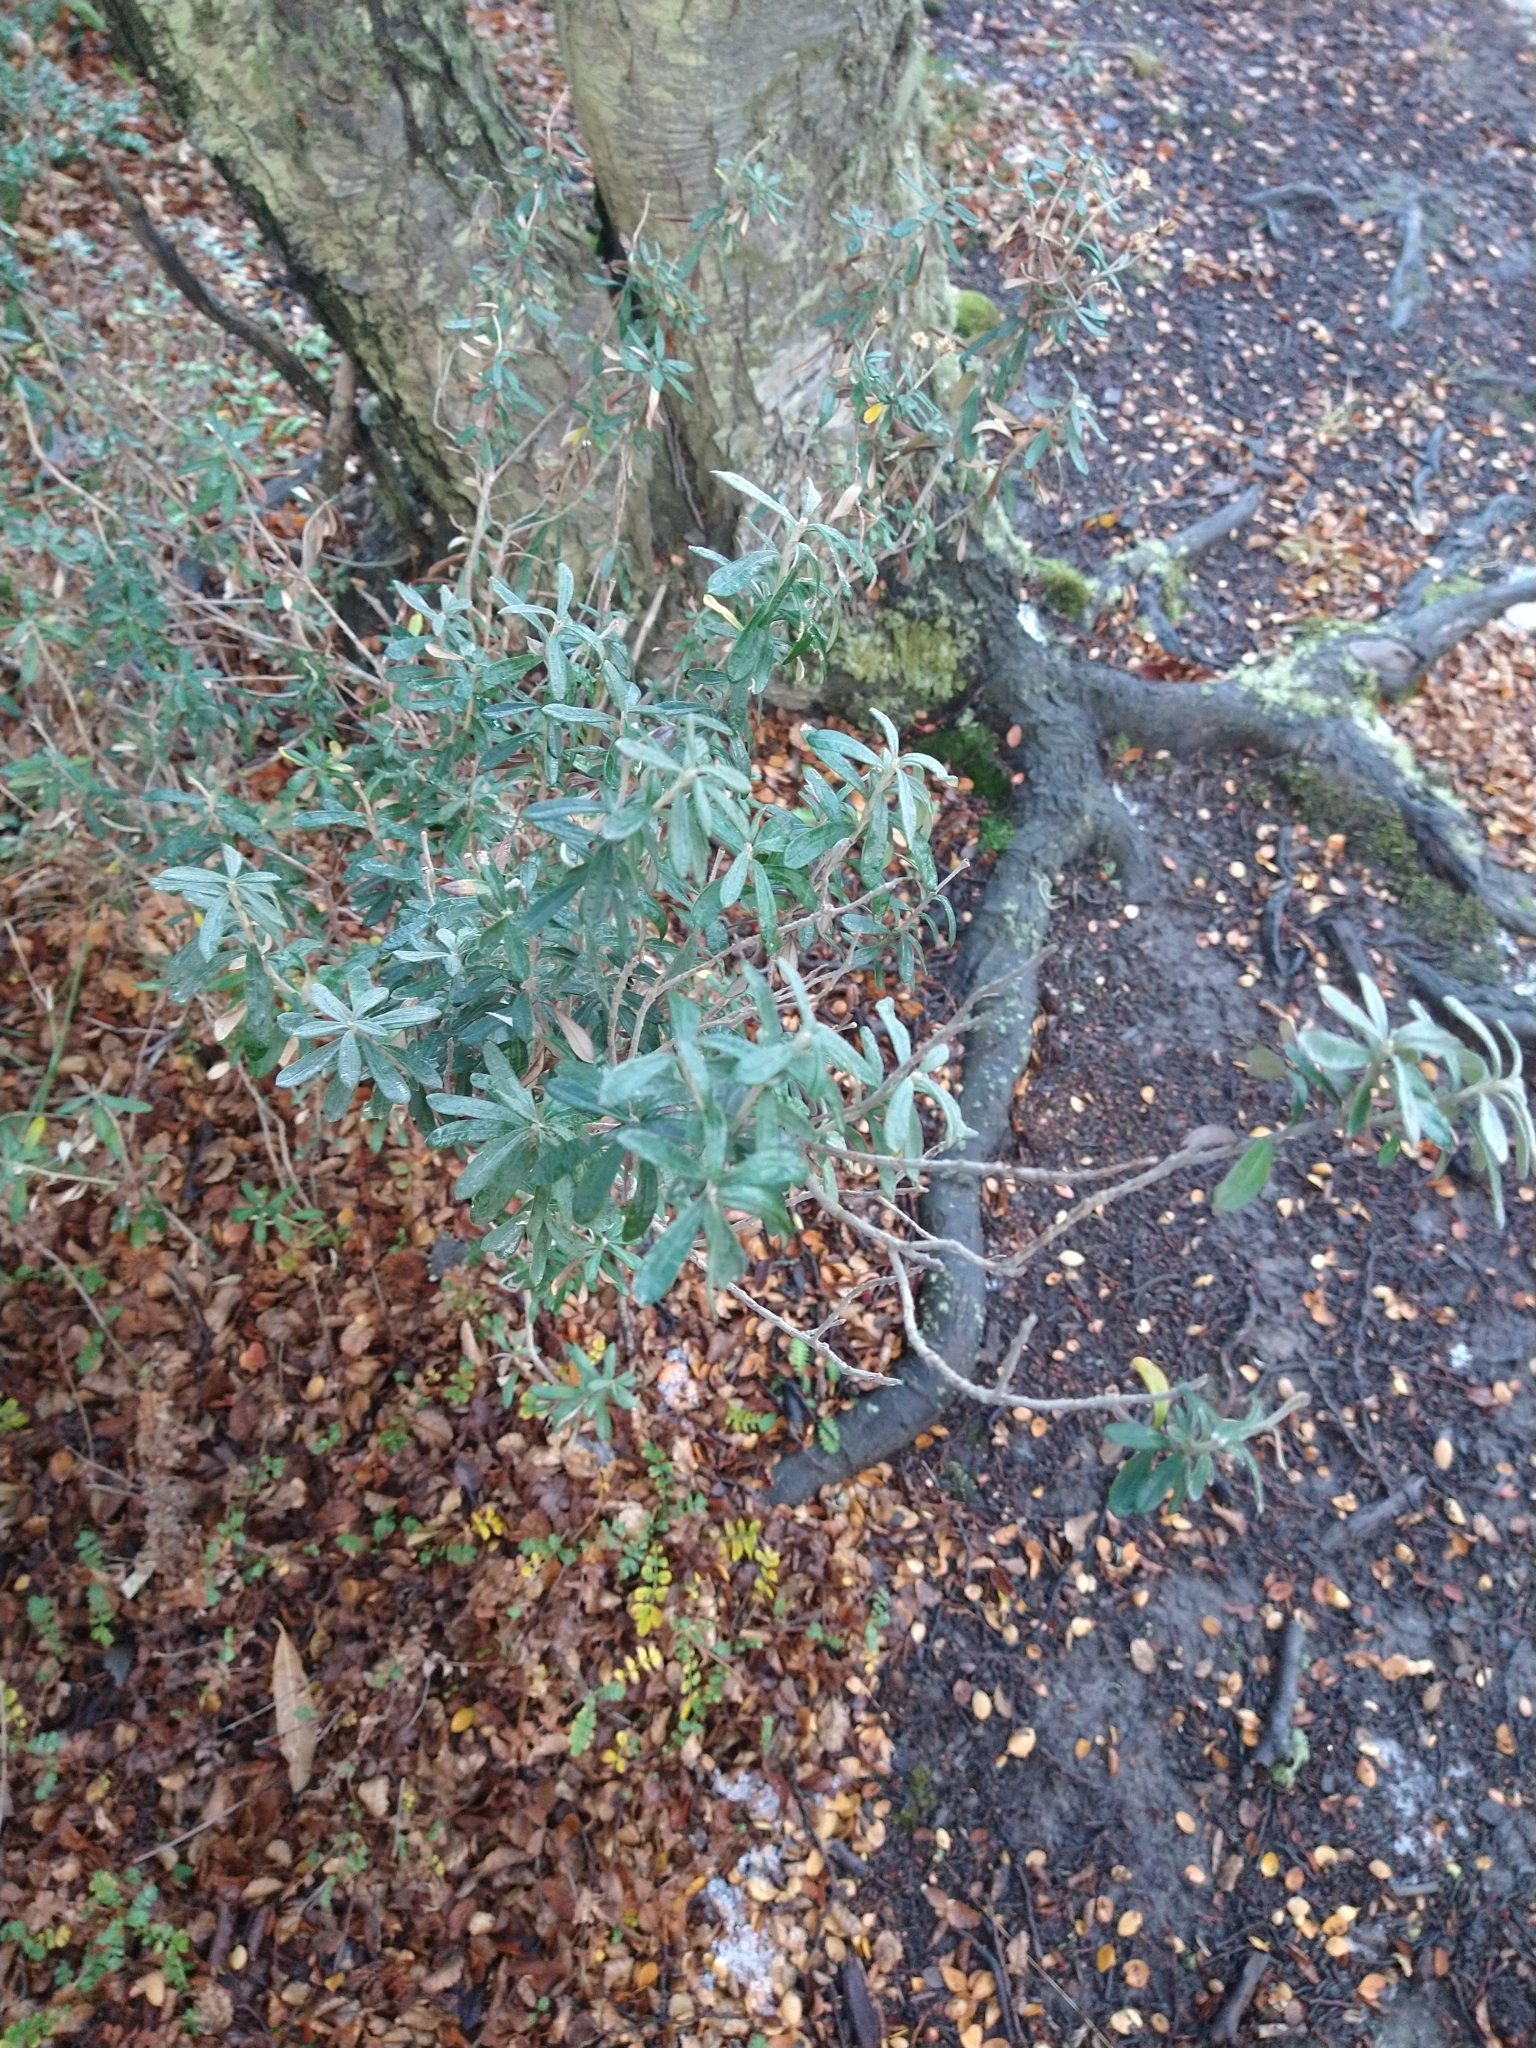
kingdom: Plantae
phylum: Tracheophyta
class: Magnoliopsida
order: Asterales
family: Asteraceae
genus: Chiliotrichum
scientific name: Chiliotrichum diffusum
